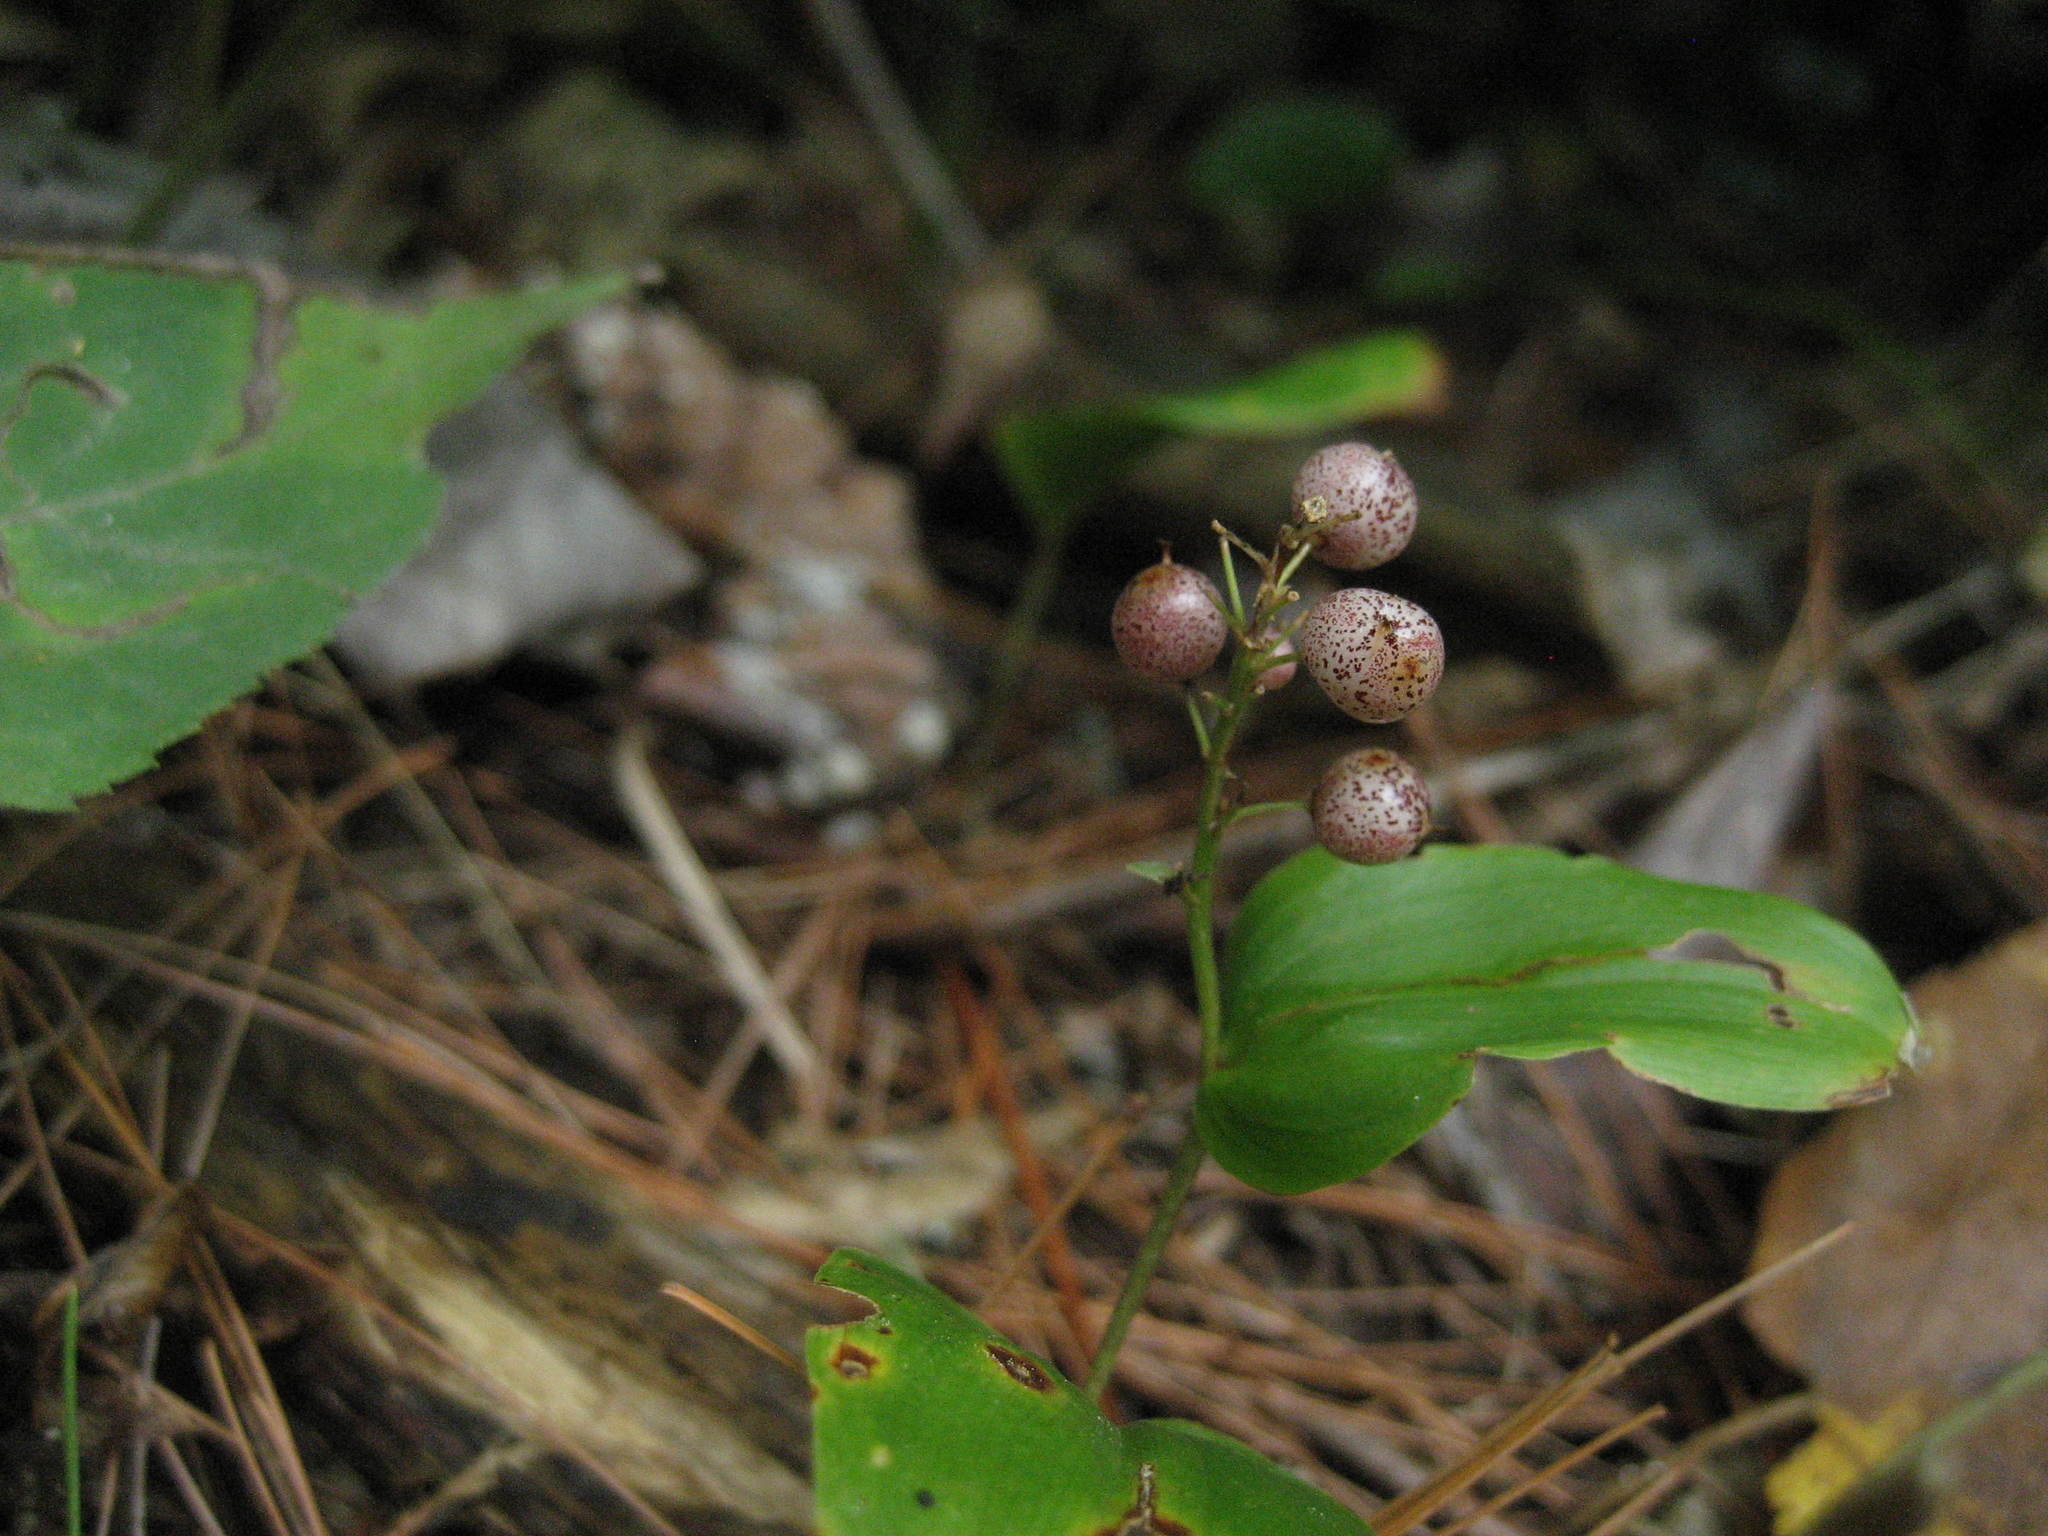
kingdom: Plantae
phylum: Tracheophyta
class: Liliopsida
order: Asparagales
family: Asparagaceae
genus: Maianthemum
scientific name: Maianthemum canadense
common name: False lily-of-the-valley
